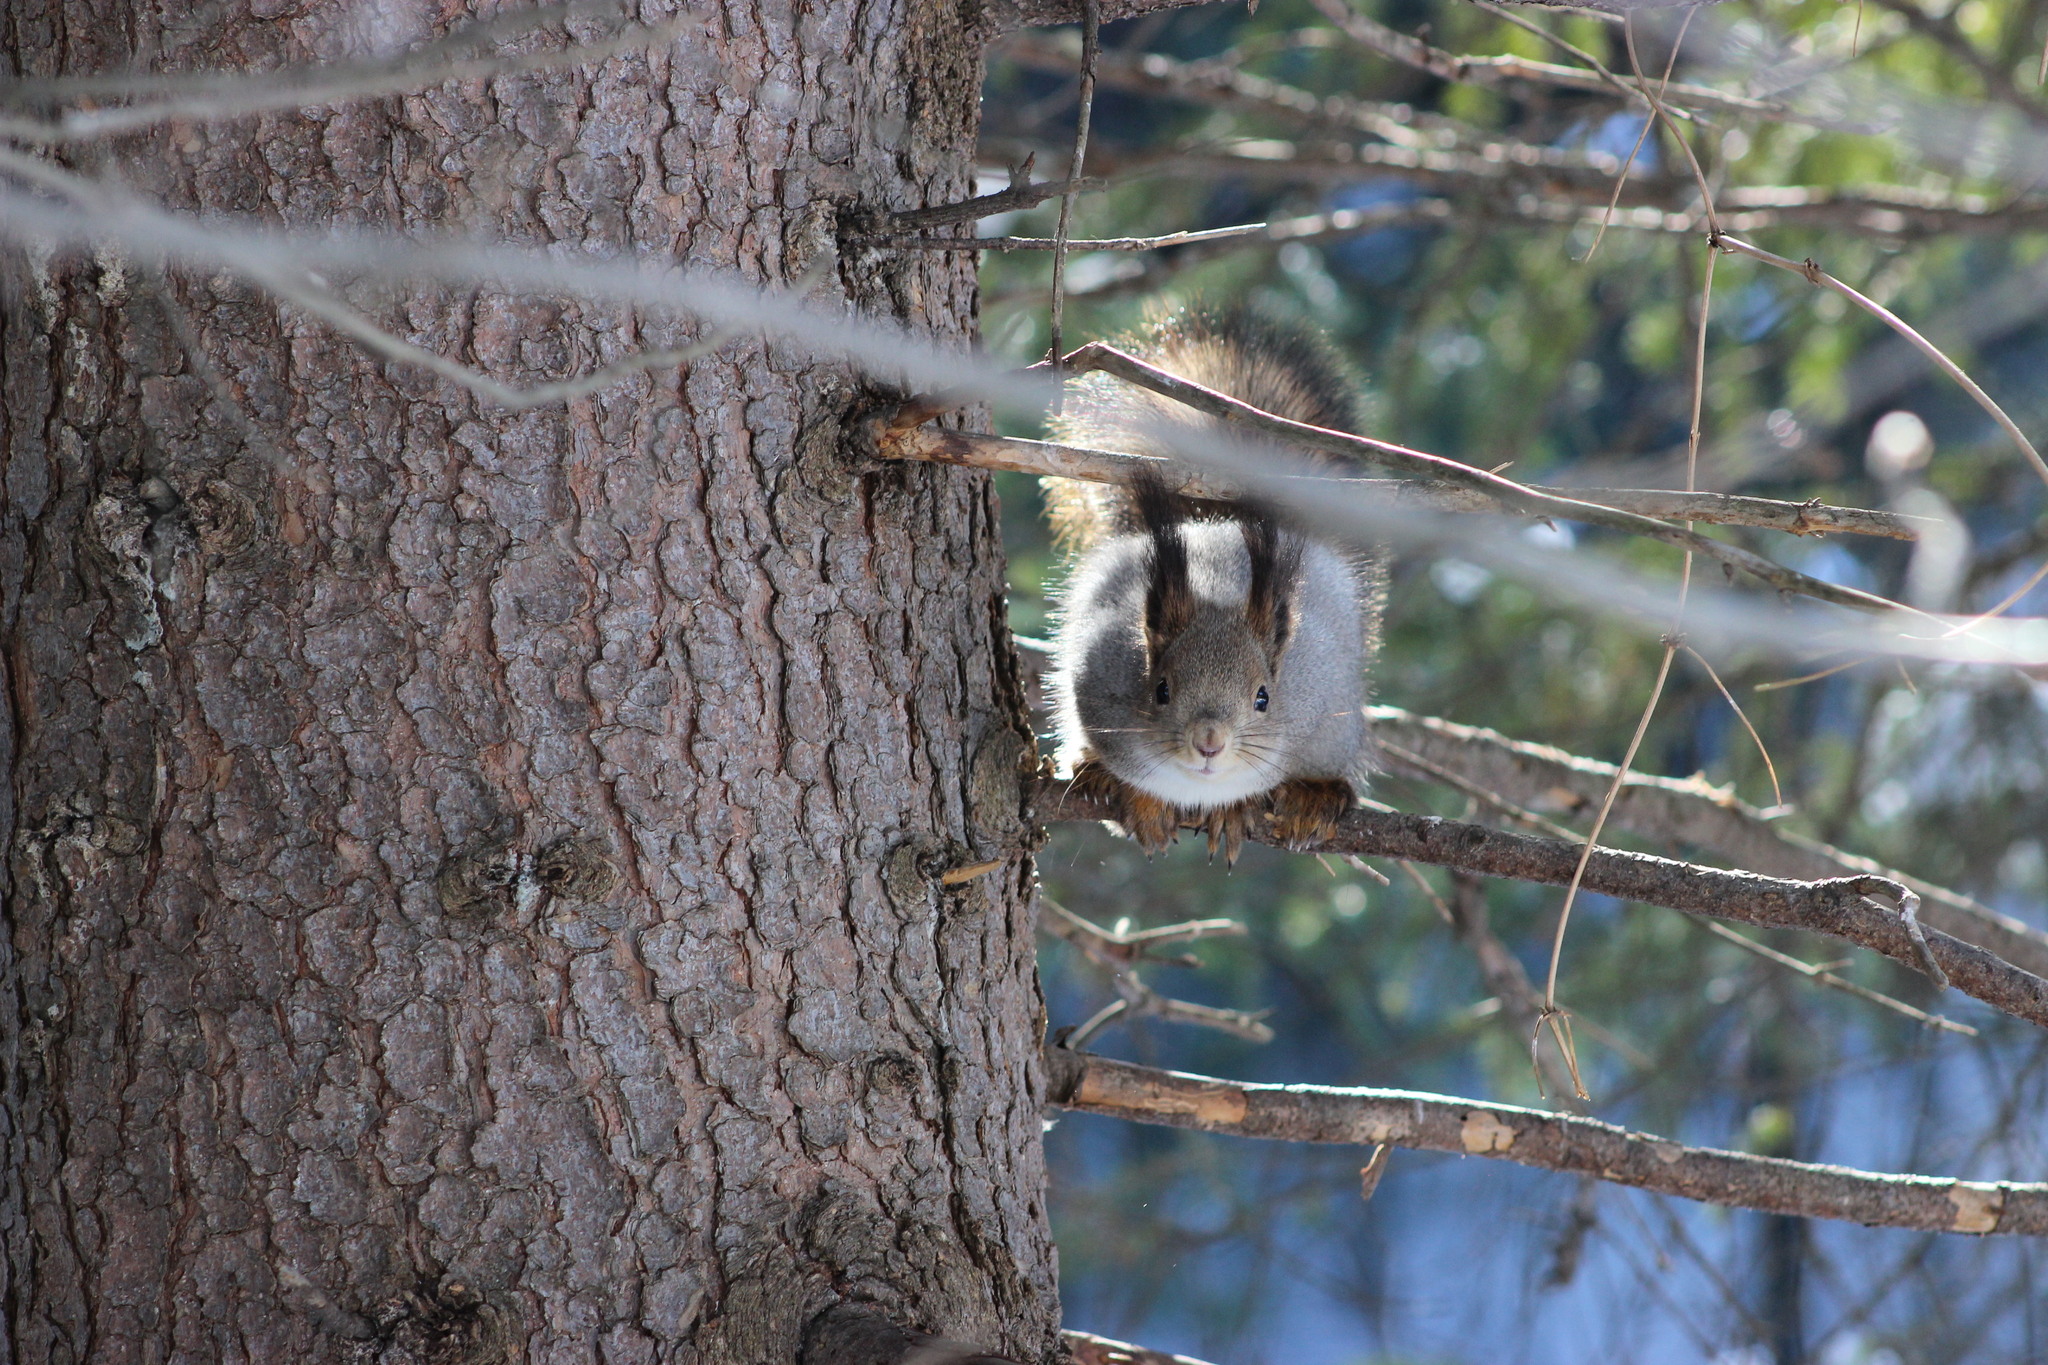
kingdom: Animalia
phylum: Chordata
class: Mammalia
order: Rodentia
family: Sciuridae
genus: Sciurus
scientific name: Sciurus vulgaris
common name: Eurasian red squirrel
